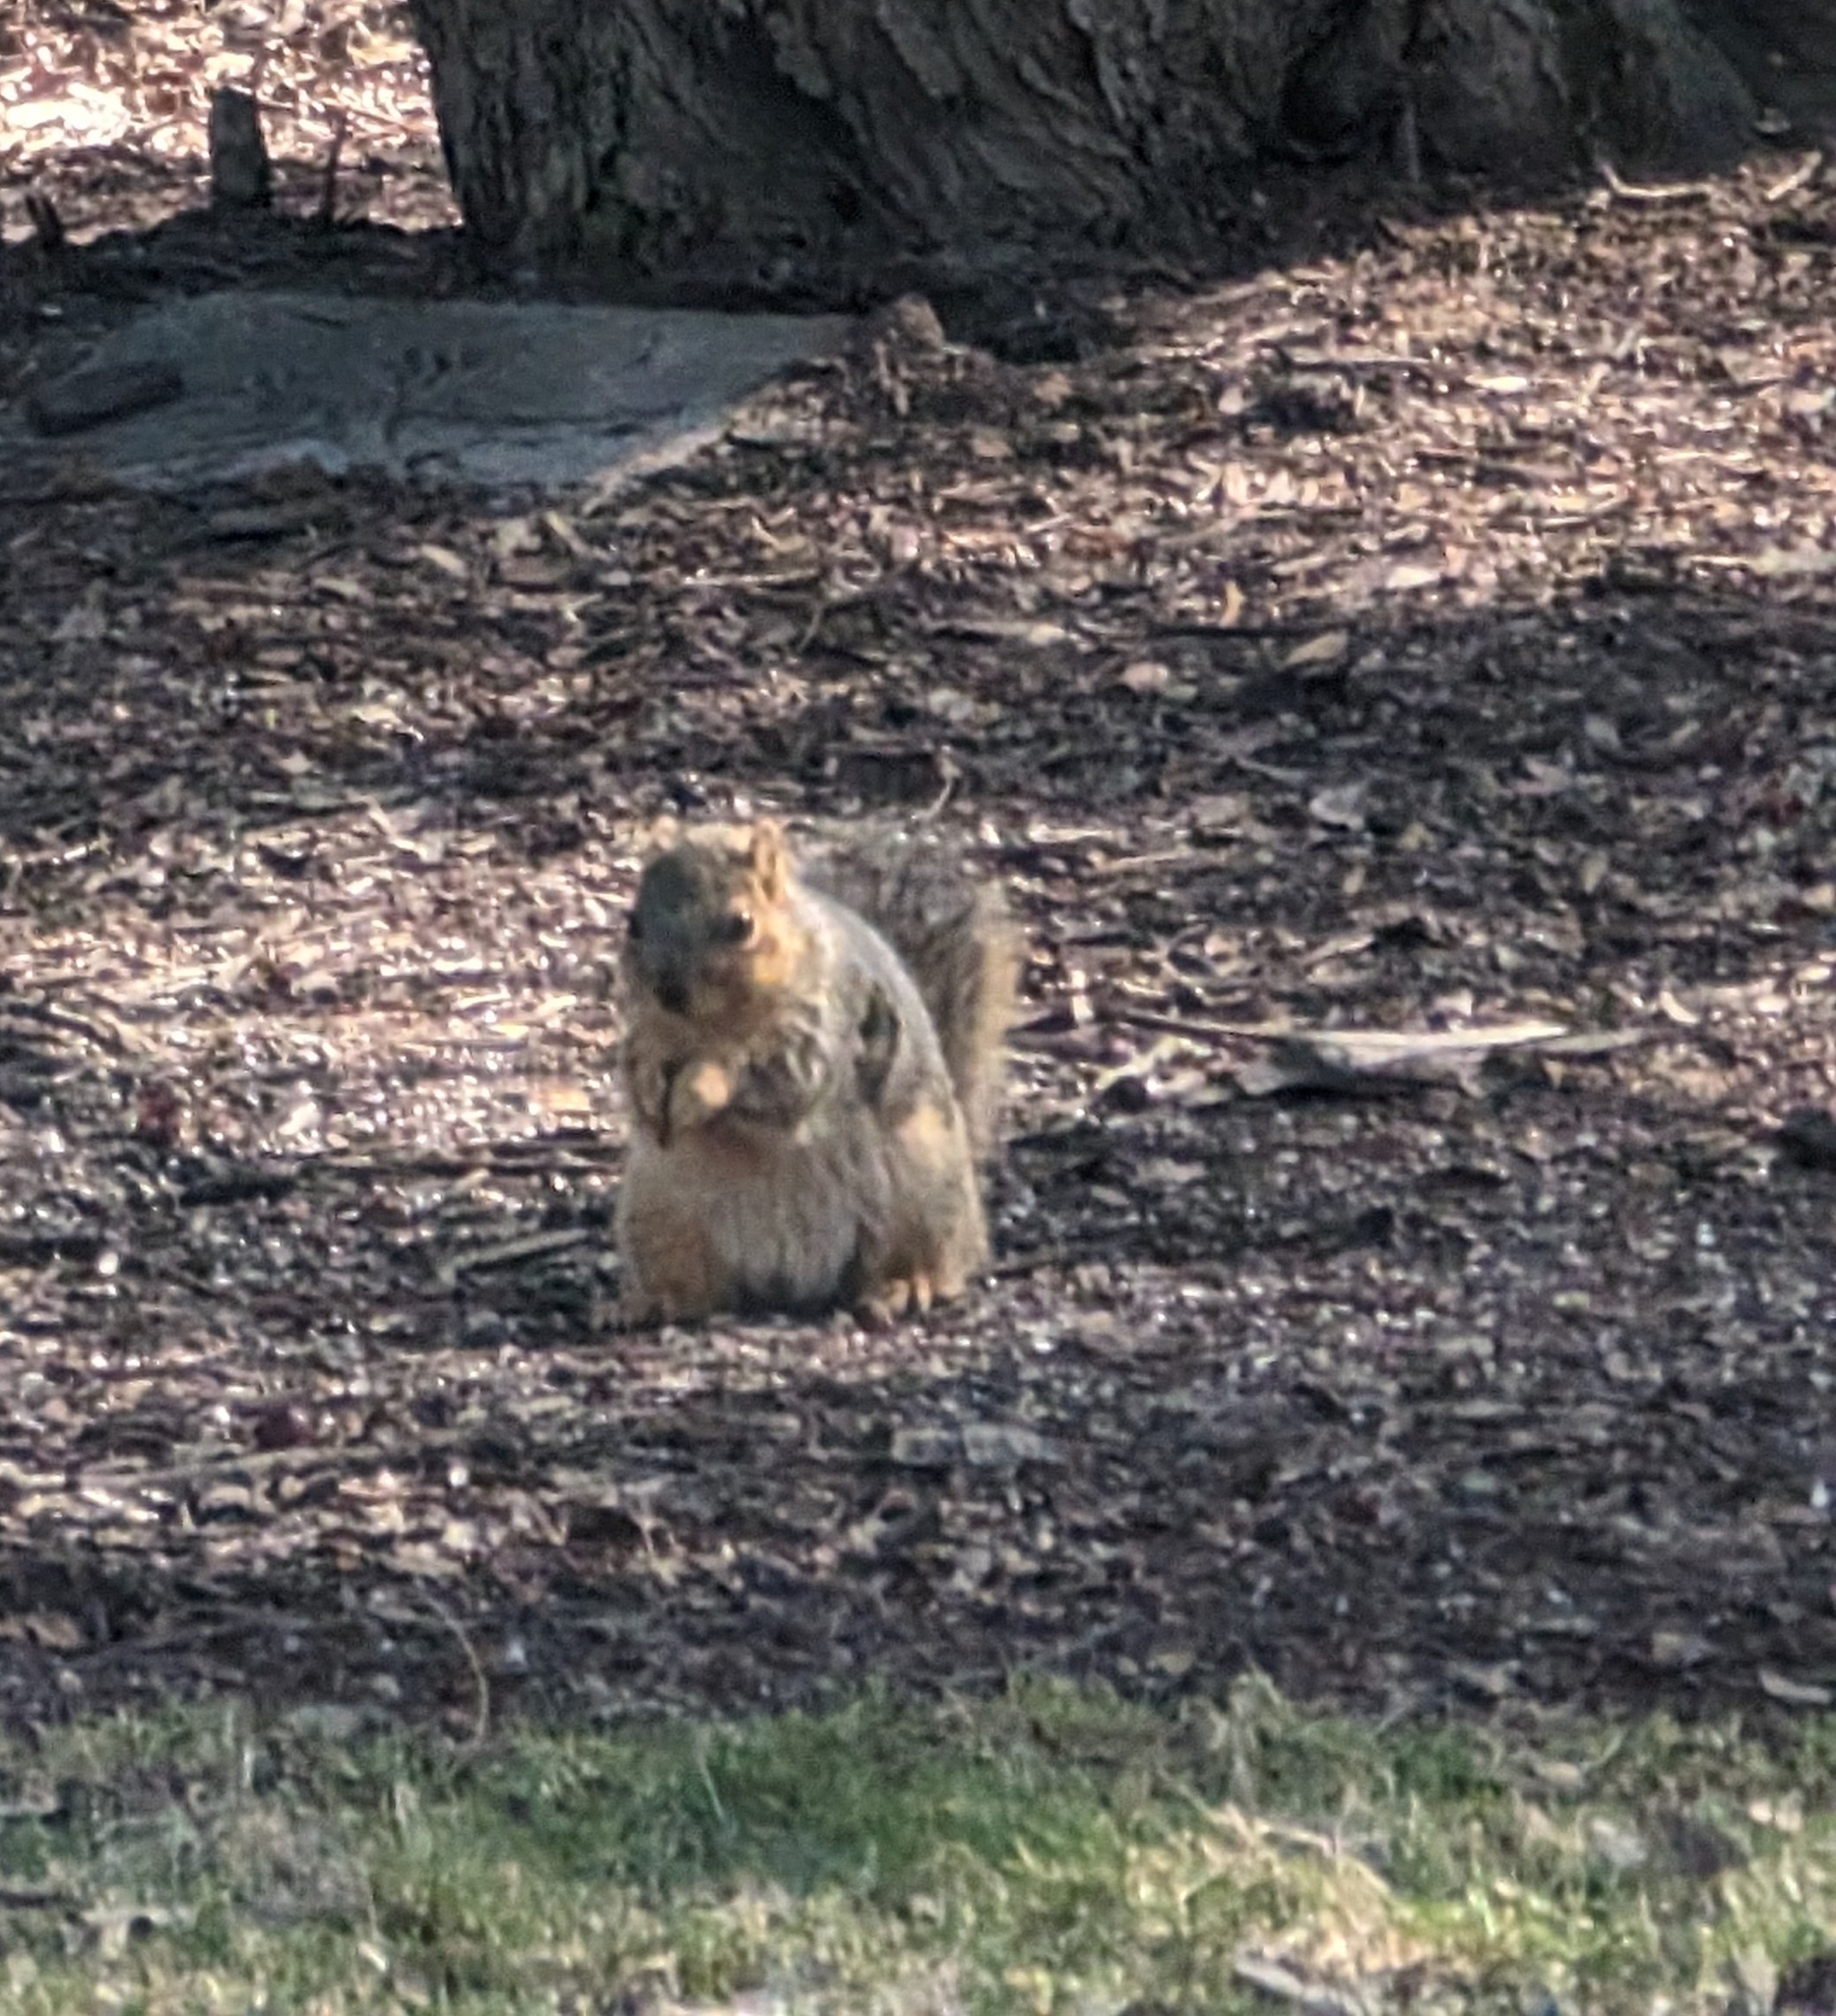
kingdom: Animalia
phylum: Chordata
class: Mammalia
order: Rodentia
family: Sciuridae
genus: Sciurus
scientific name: Sciurus niger
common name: Fox squirrel
